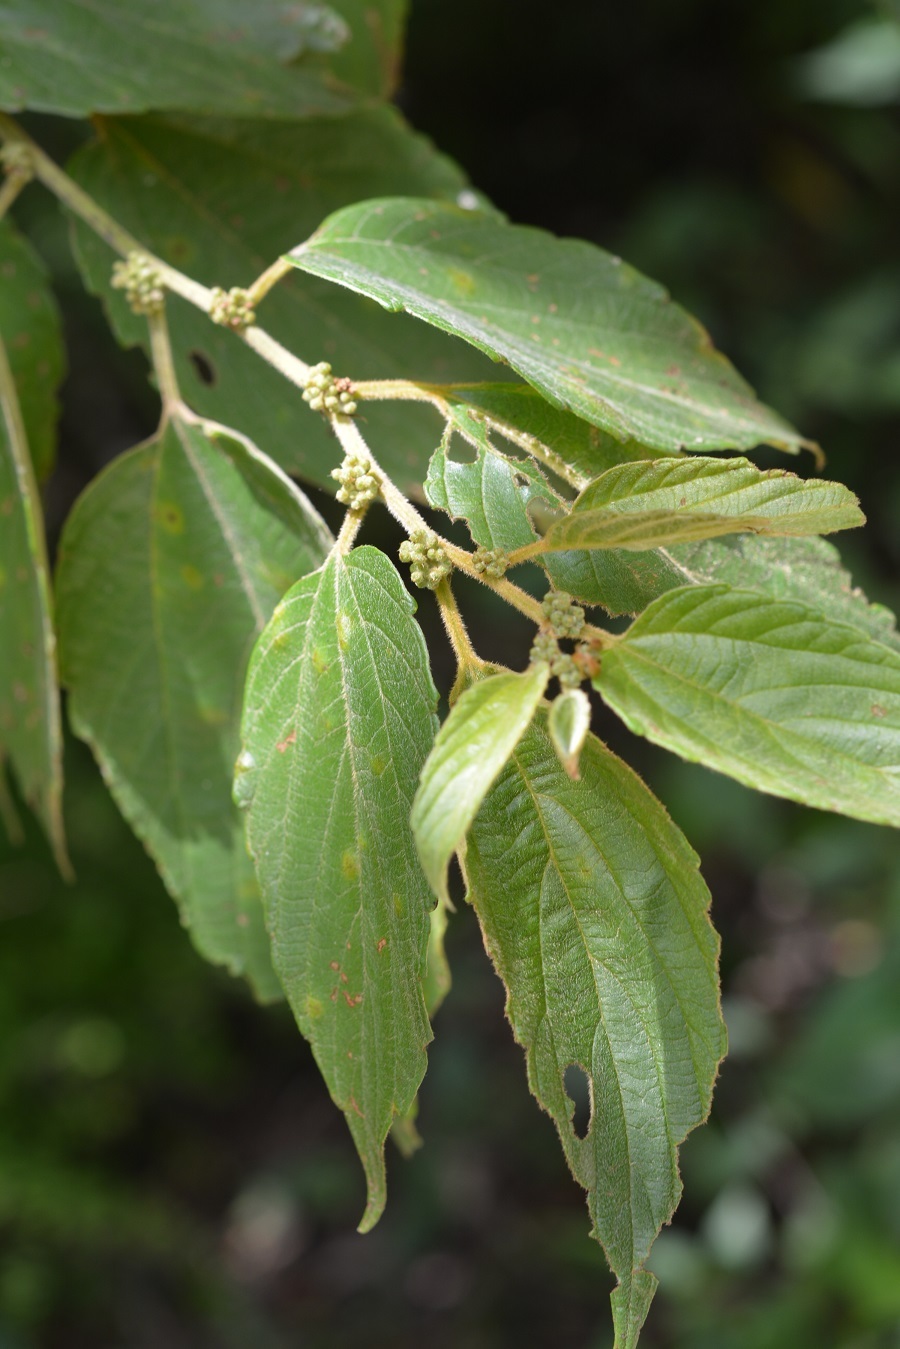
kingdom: Plantae
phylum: Tracheophyta
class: Magnoliopsida
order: Rosales
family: Cannabaceae
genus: Trema
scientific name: Trema micranthum
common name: Jamaican nettletree
